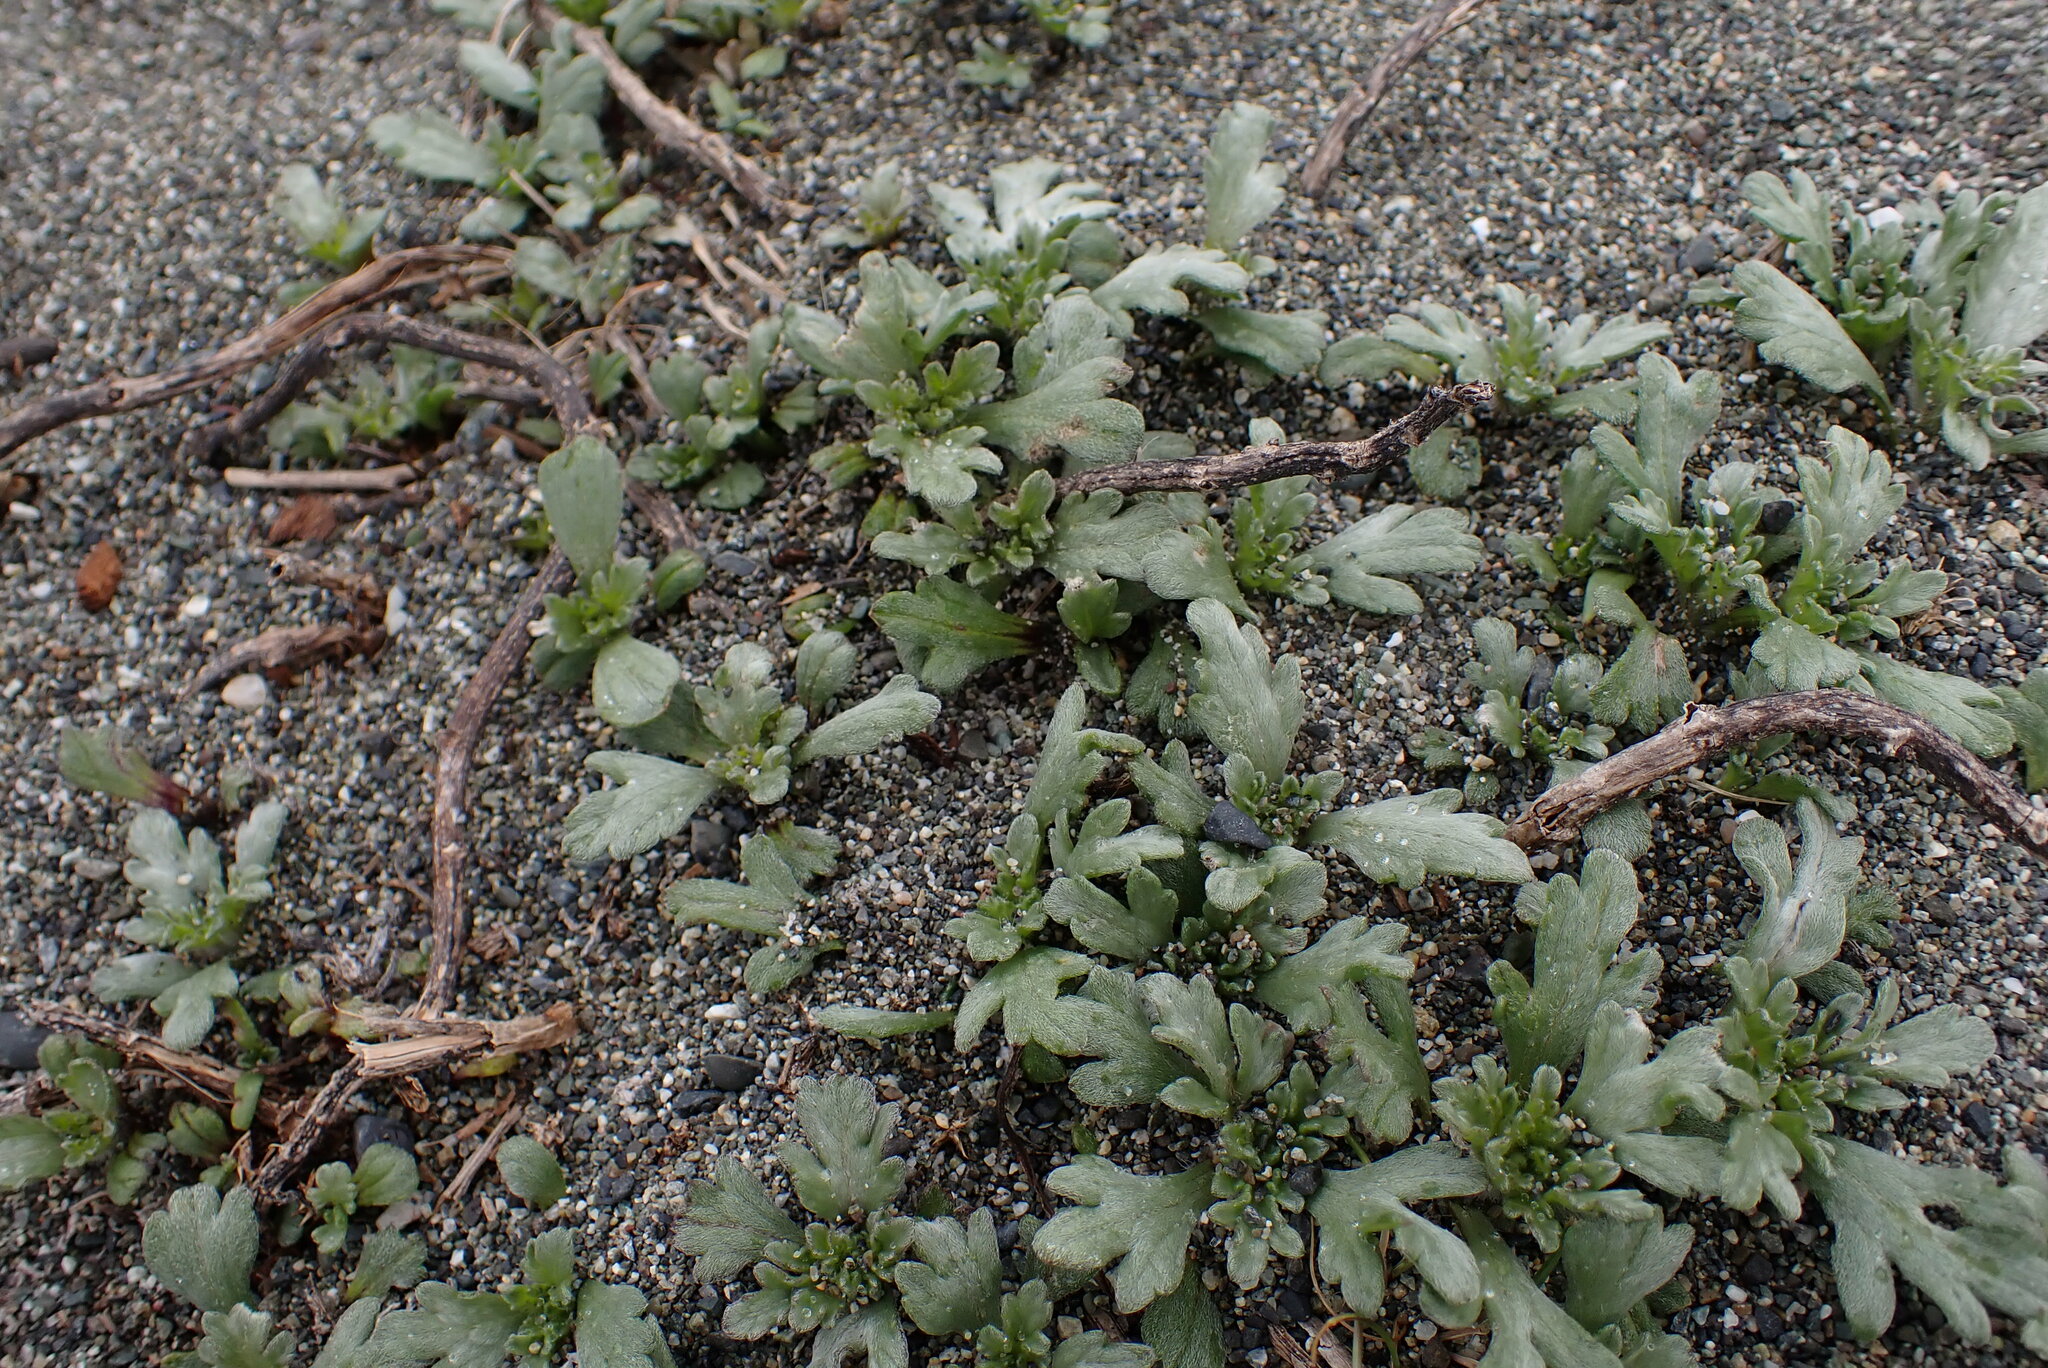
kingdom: Plantae
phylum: Tracheophyta
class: Magnoliopsida
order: Asterales
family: Asteraceae
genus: Ambrosia
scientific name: Ambrosia chamissonis
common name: Beachbur
